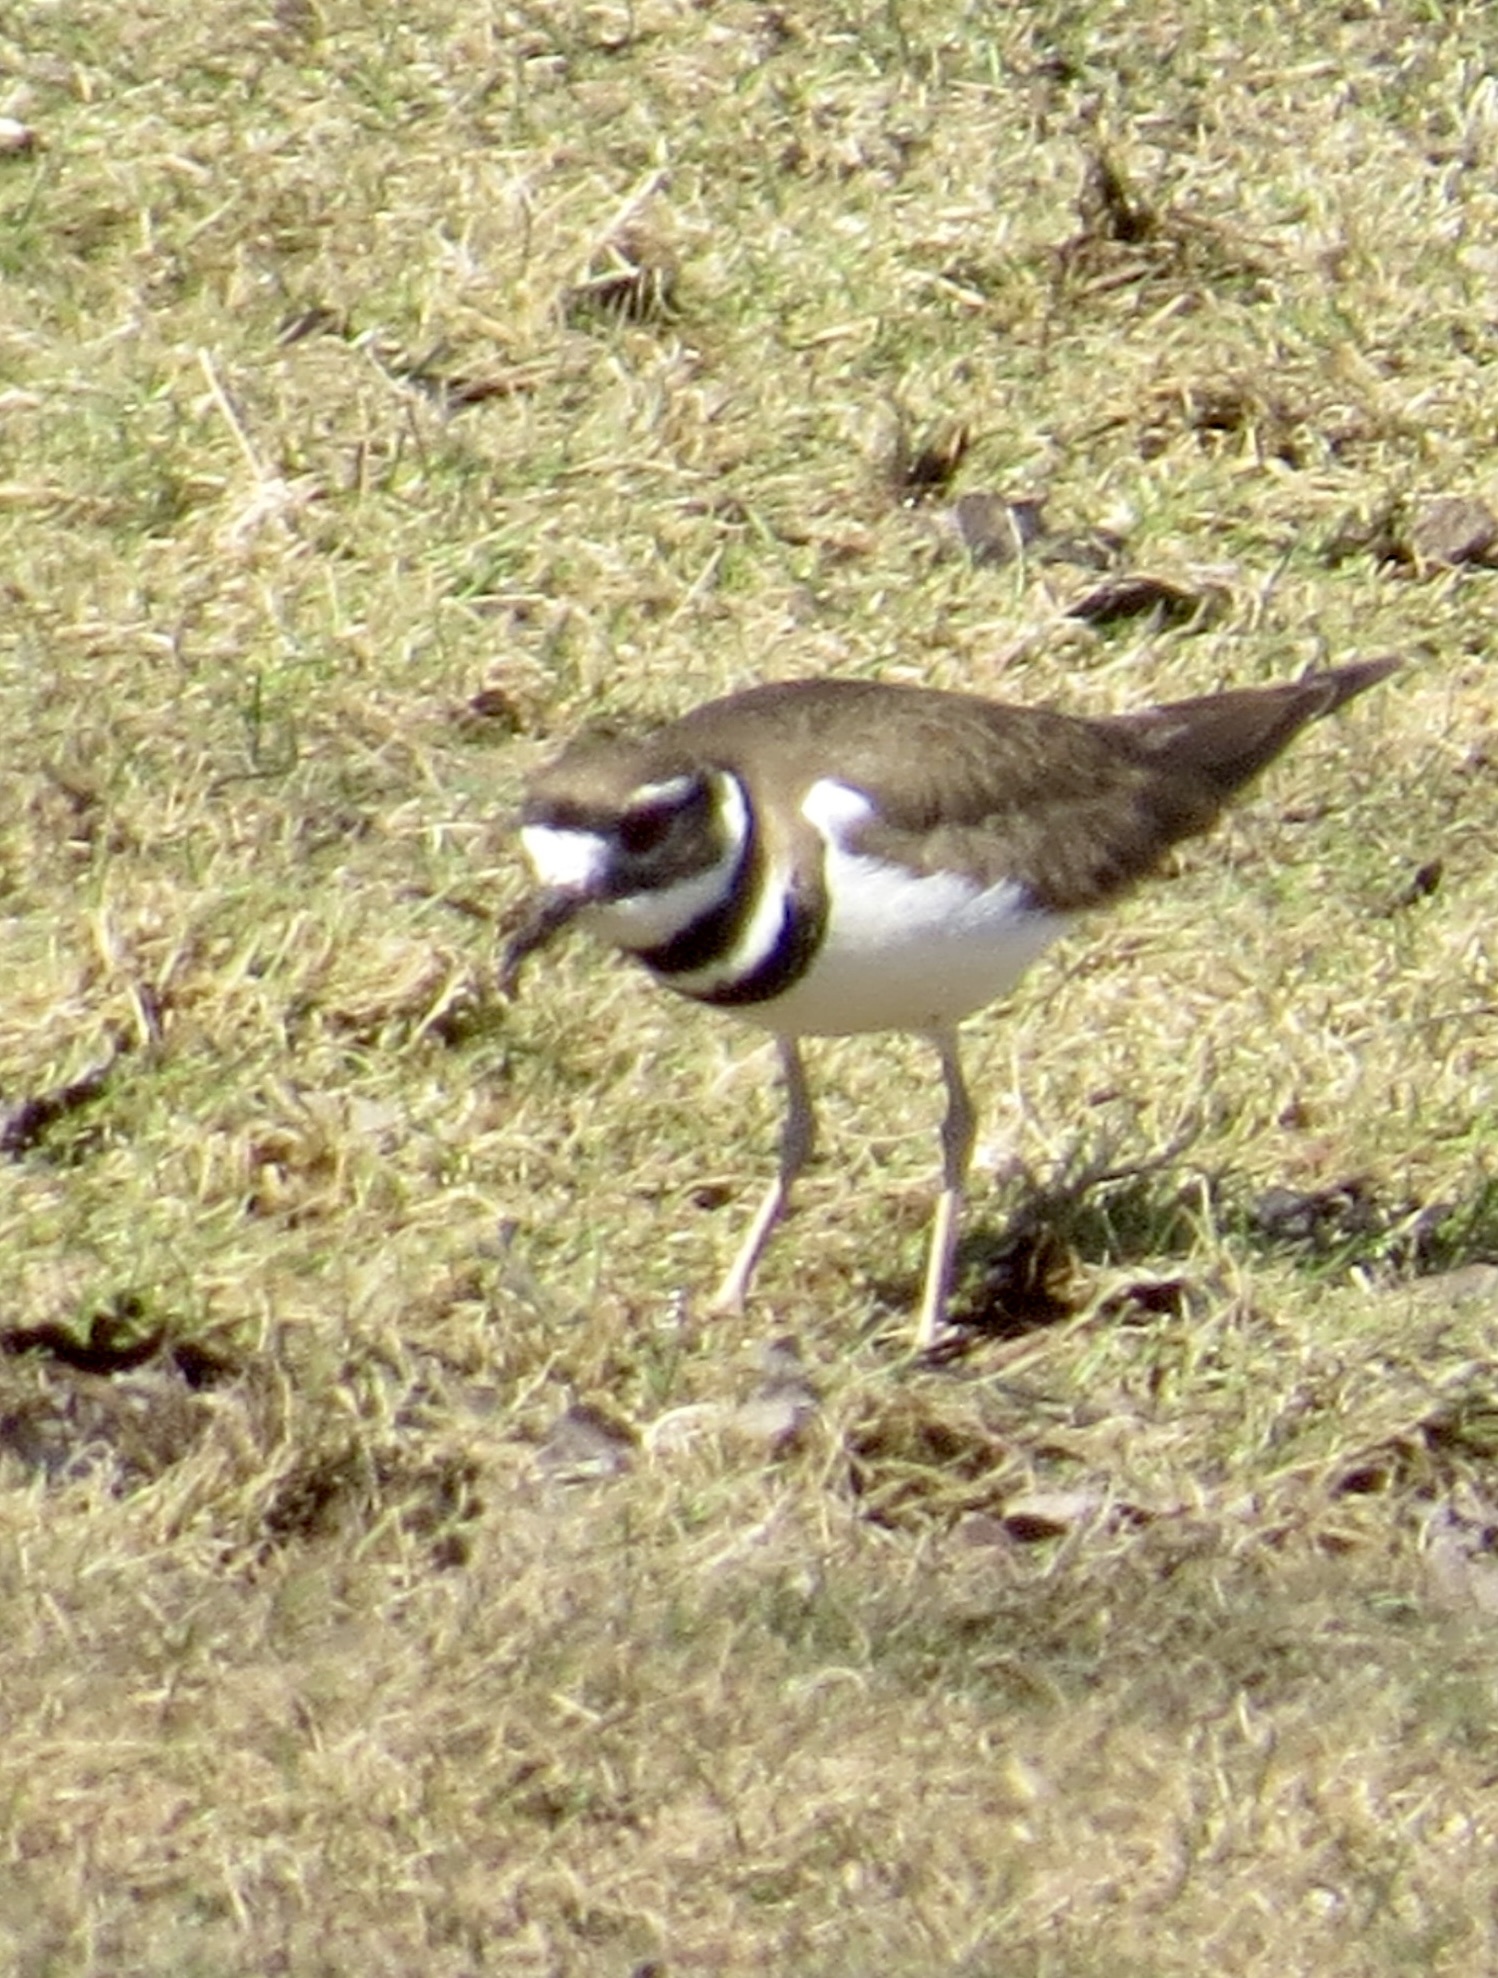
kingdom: Animalia
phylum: Chordata
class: Aves
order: Charadriiformes
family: Charadriidae
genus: Charadrius
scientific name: Charadrius vociferus
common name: Killdeer
